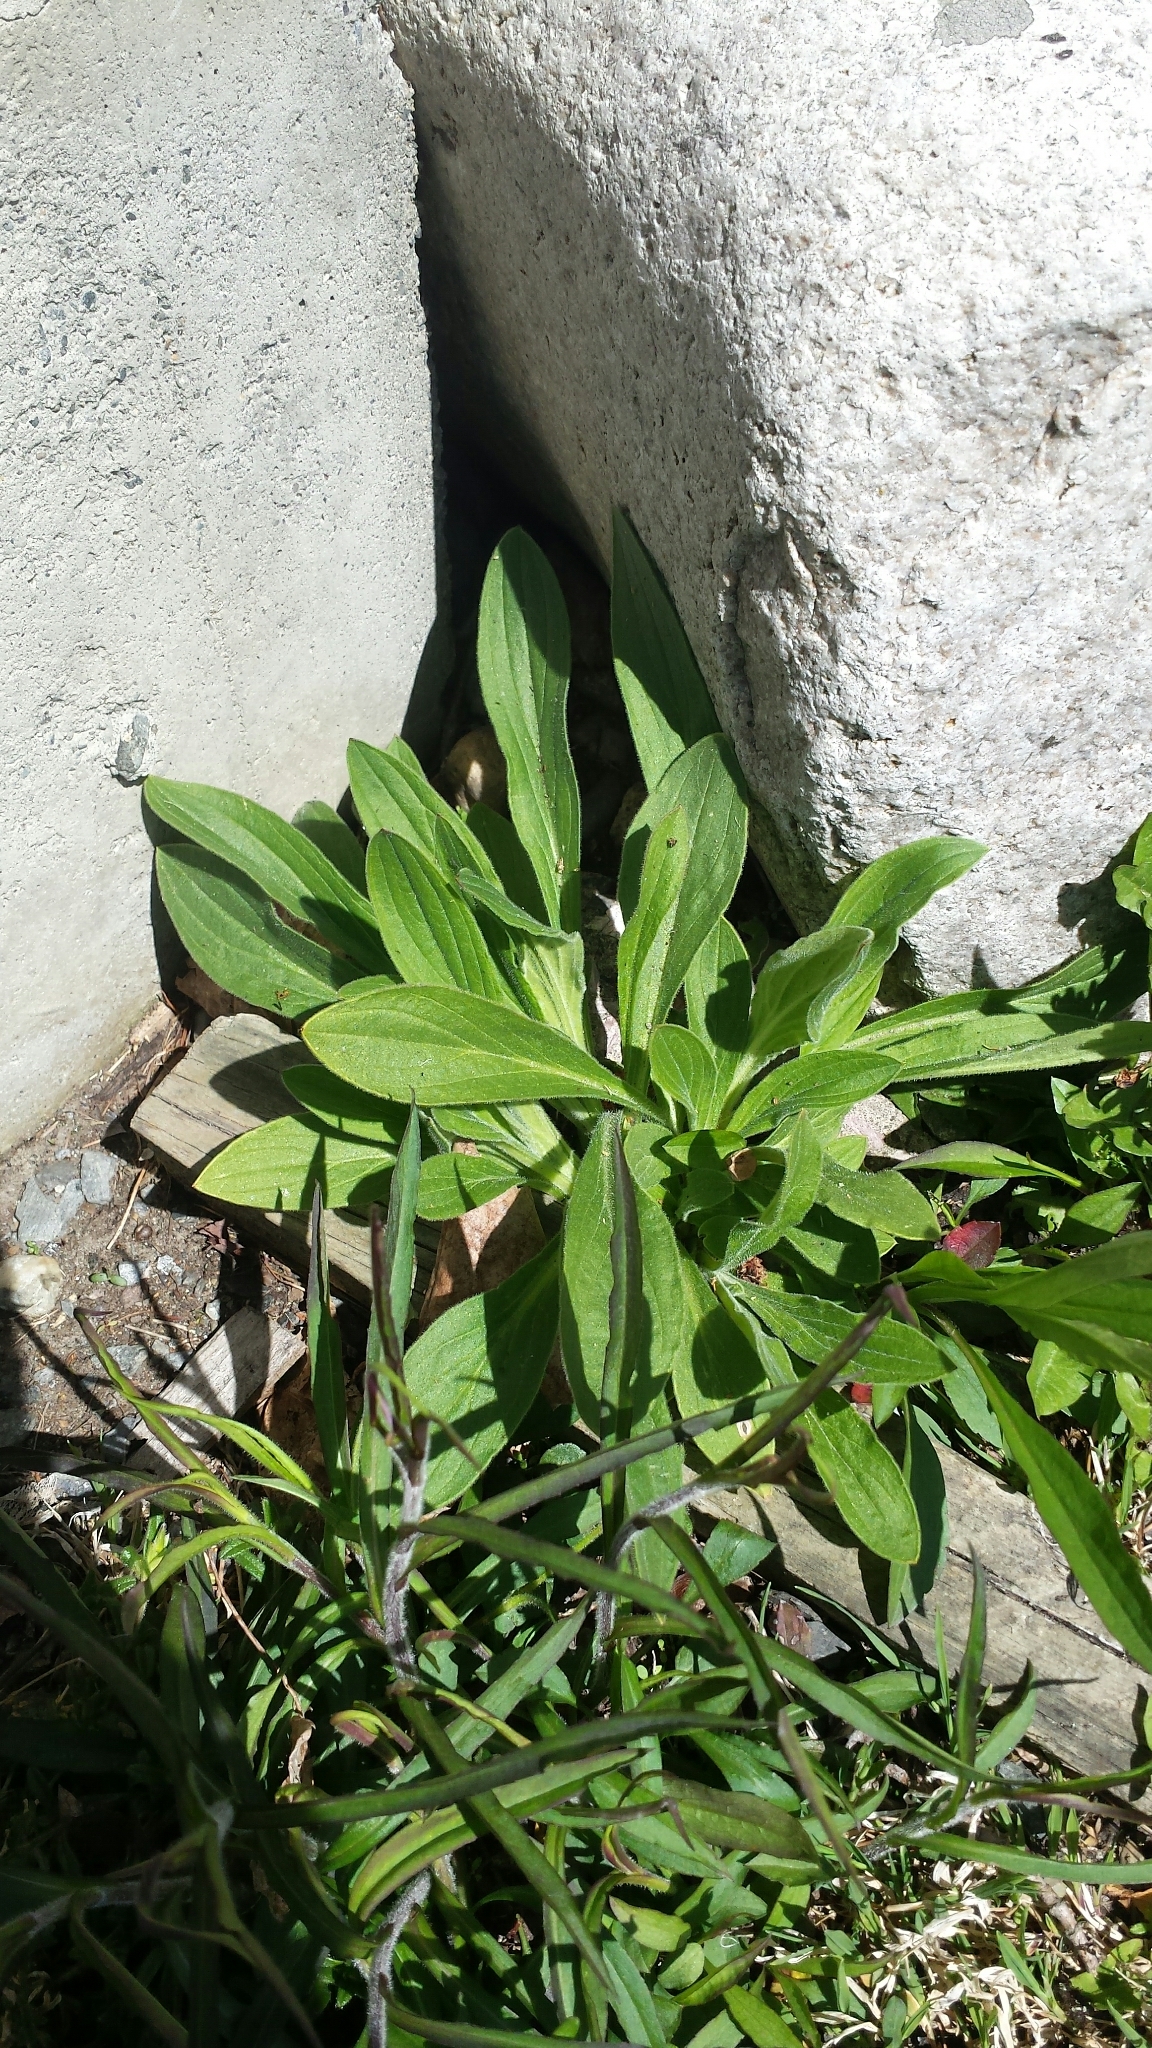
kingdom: Plantae
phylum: Tracheophyta
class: Magnoliopsida
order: Caryophyllales
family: Caryophyllaceae
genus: Silene
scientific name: Silene latifolia
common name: White campion
